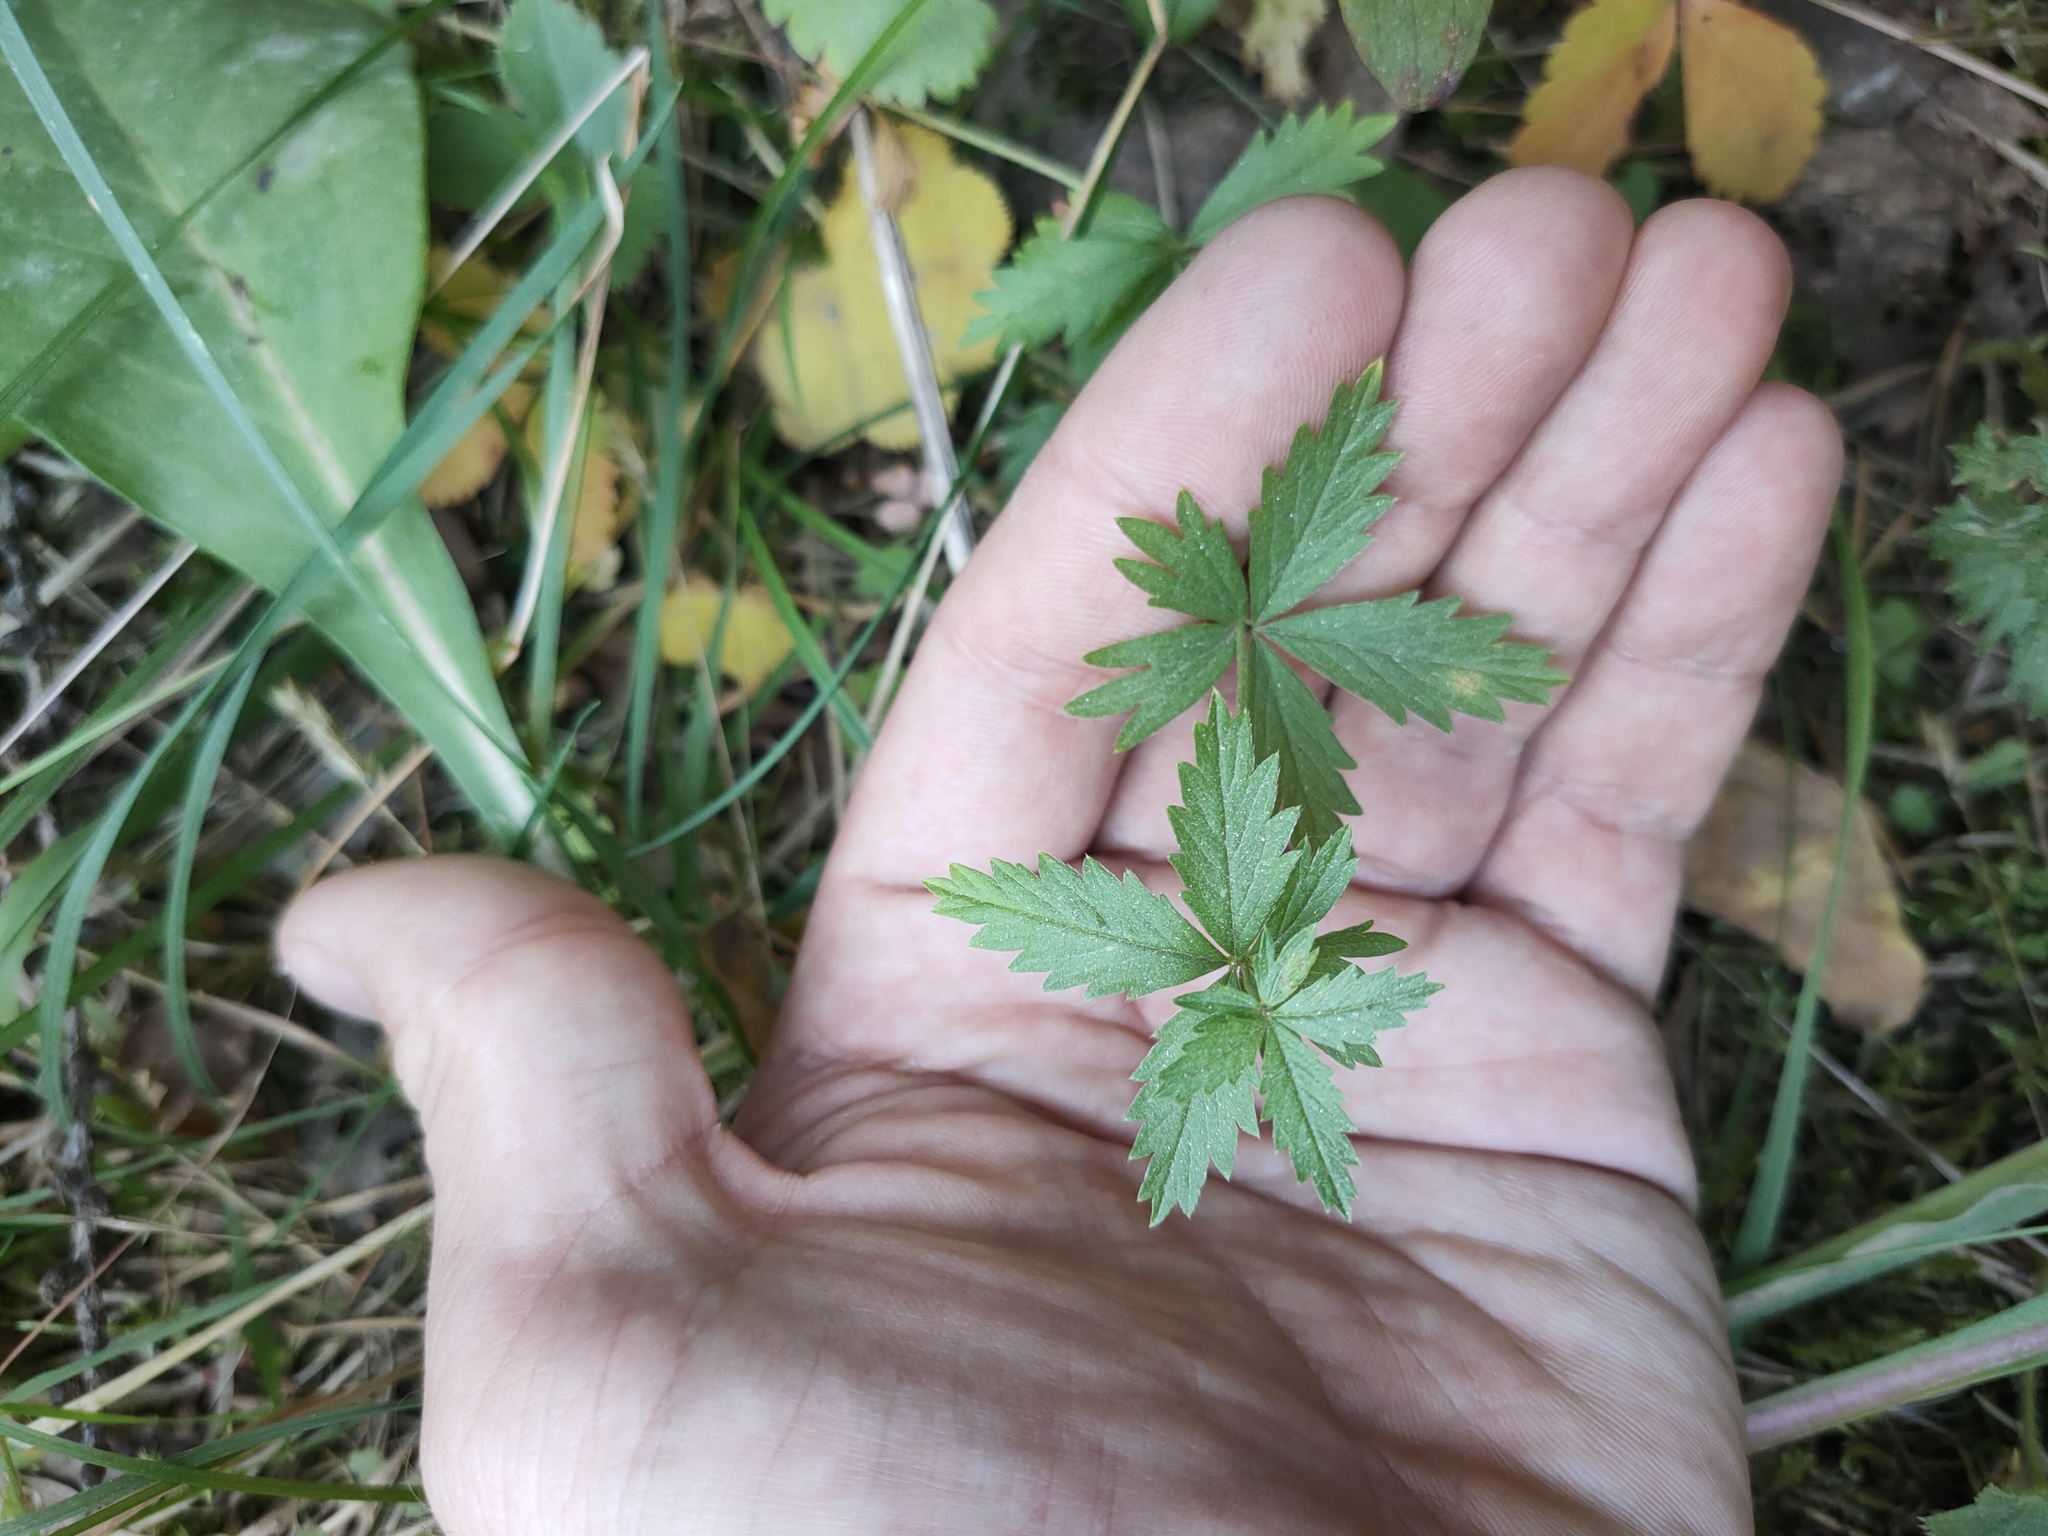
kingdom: Plantae
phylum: Tracheophyta
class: Magnoliopsida
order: Rosales
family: Rosaceae
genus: Potentilla
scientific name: Potentilla erecta
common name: Tormentil
